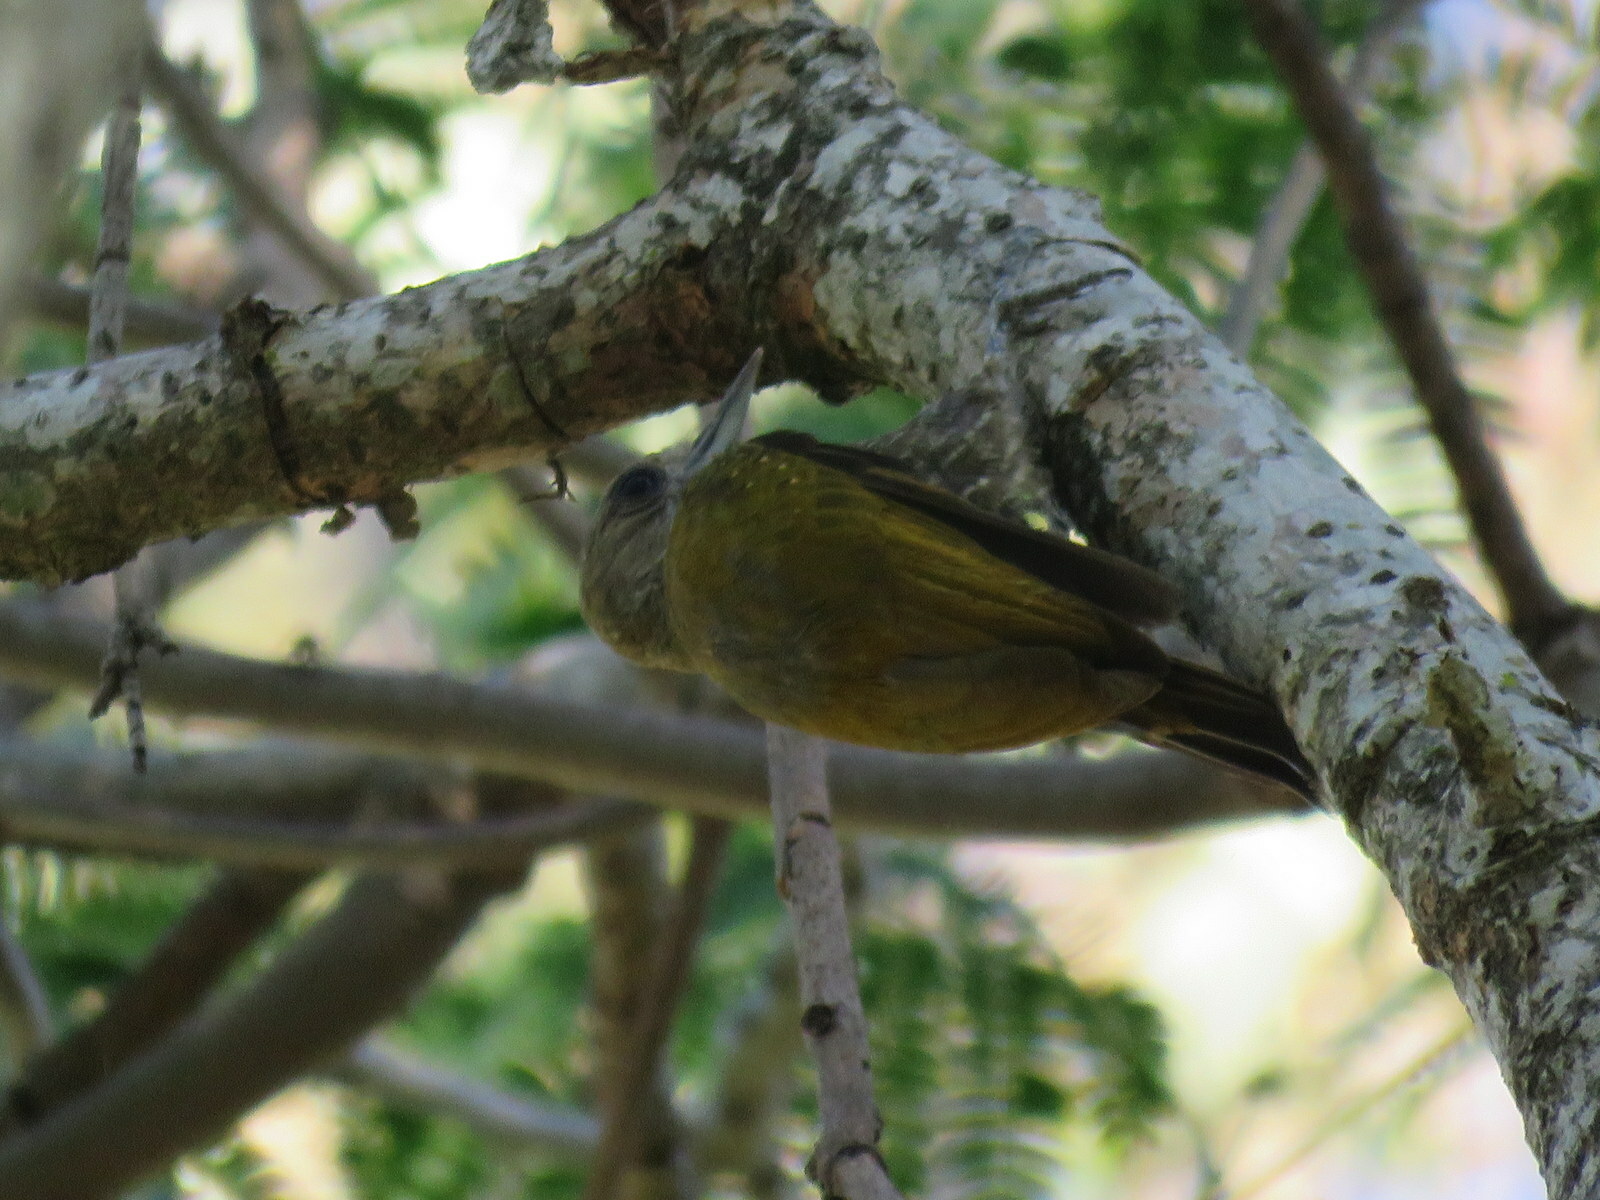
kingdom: Animalia
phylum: Chordata
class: Aves
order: Piciformes
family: Picidae
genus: Veniliornis
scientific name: Veniliornis passerinus
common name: Little woodpecker
